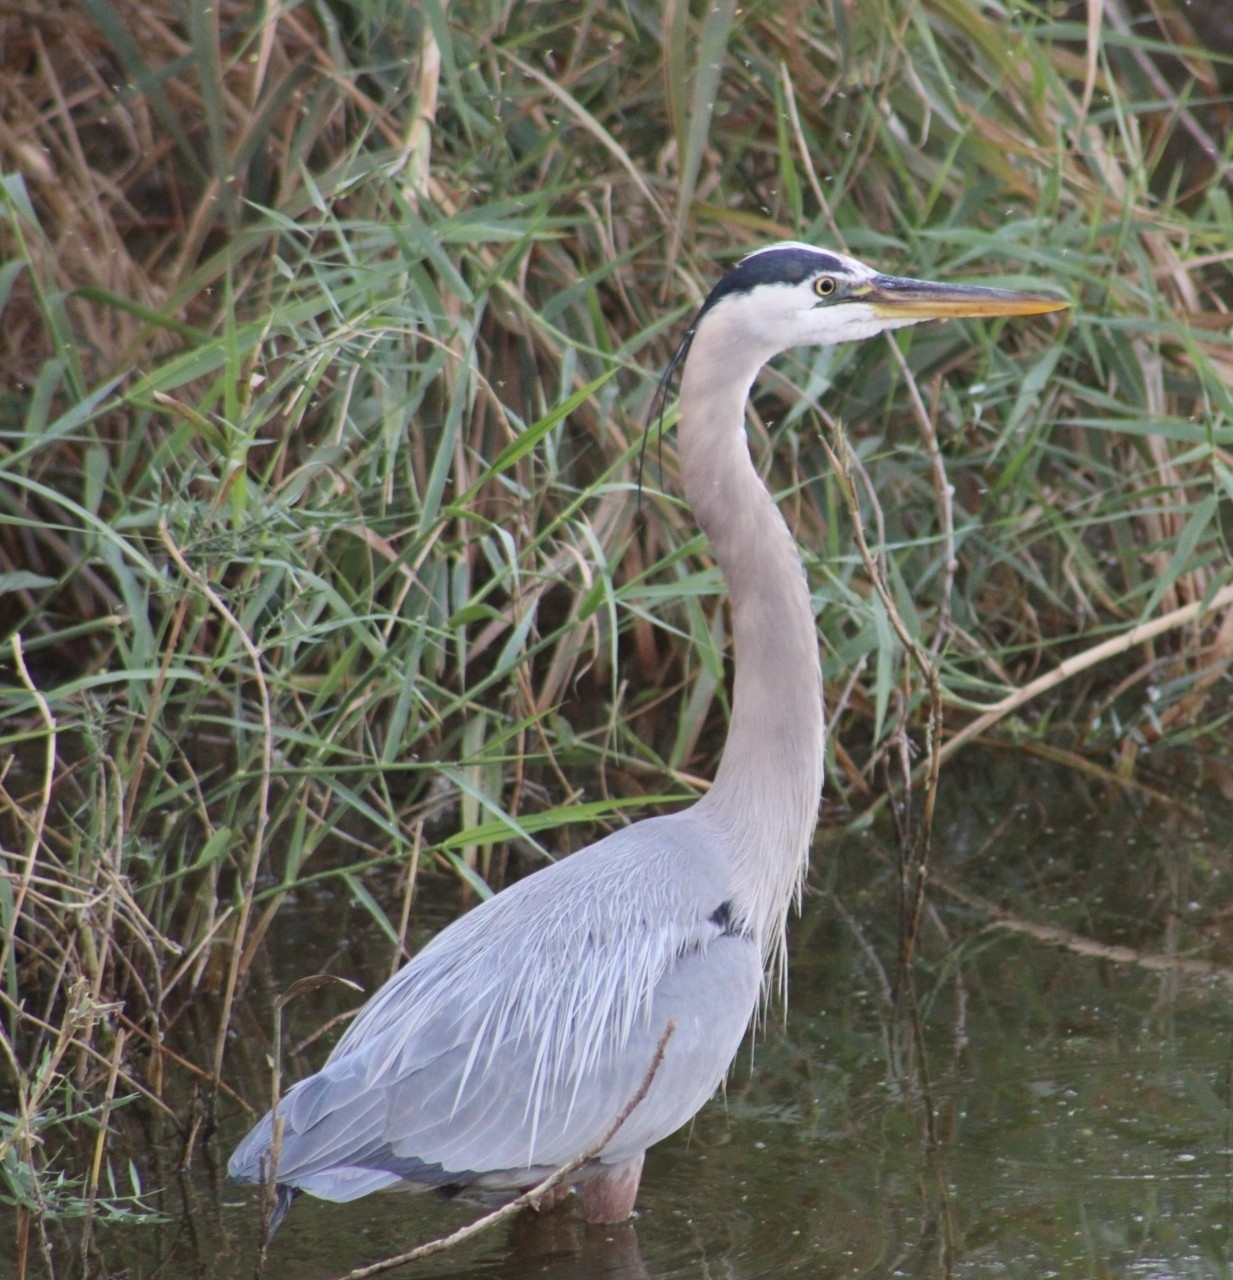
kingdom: Animalia
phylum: Chordata
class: Aves
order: Pelecaniformes
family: Ardeidae
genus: Ardea
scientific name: Ardea herodias
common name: Great blue heron
